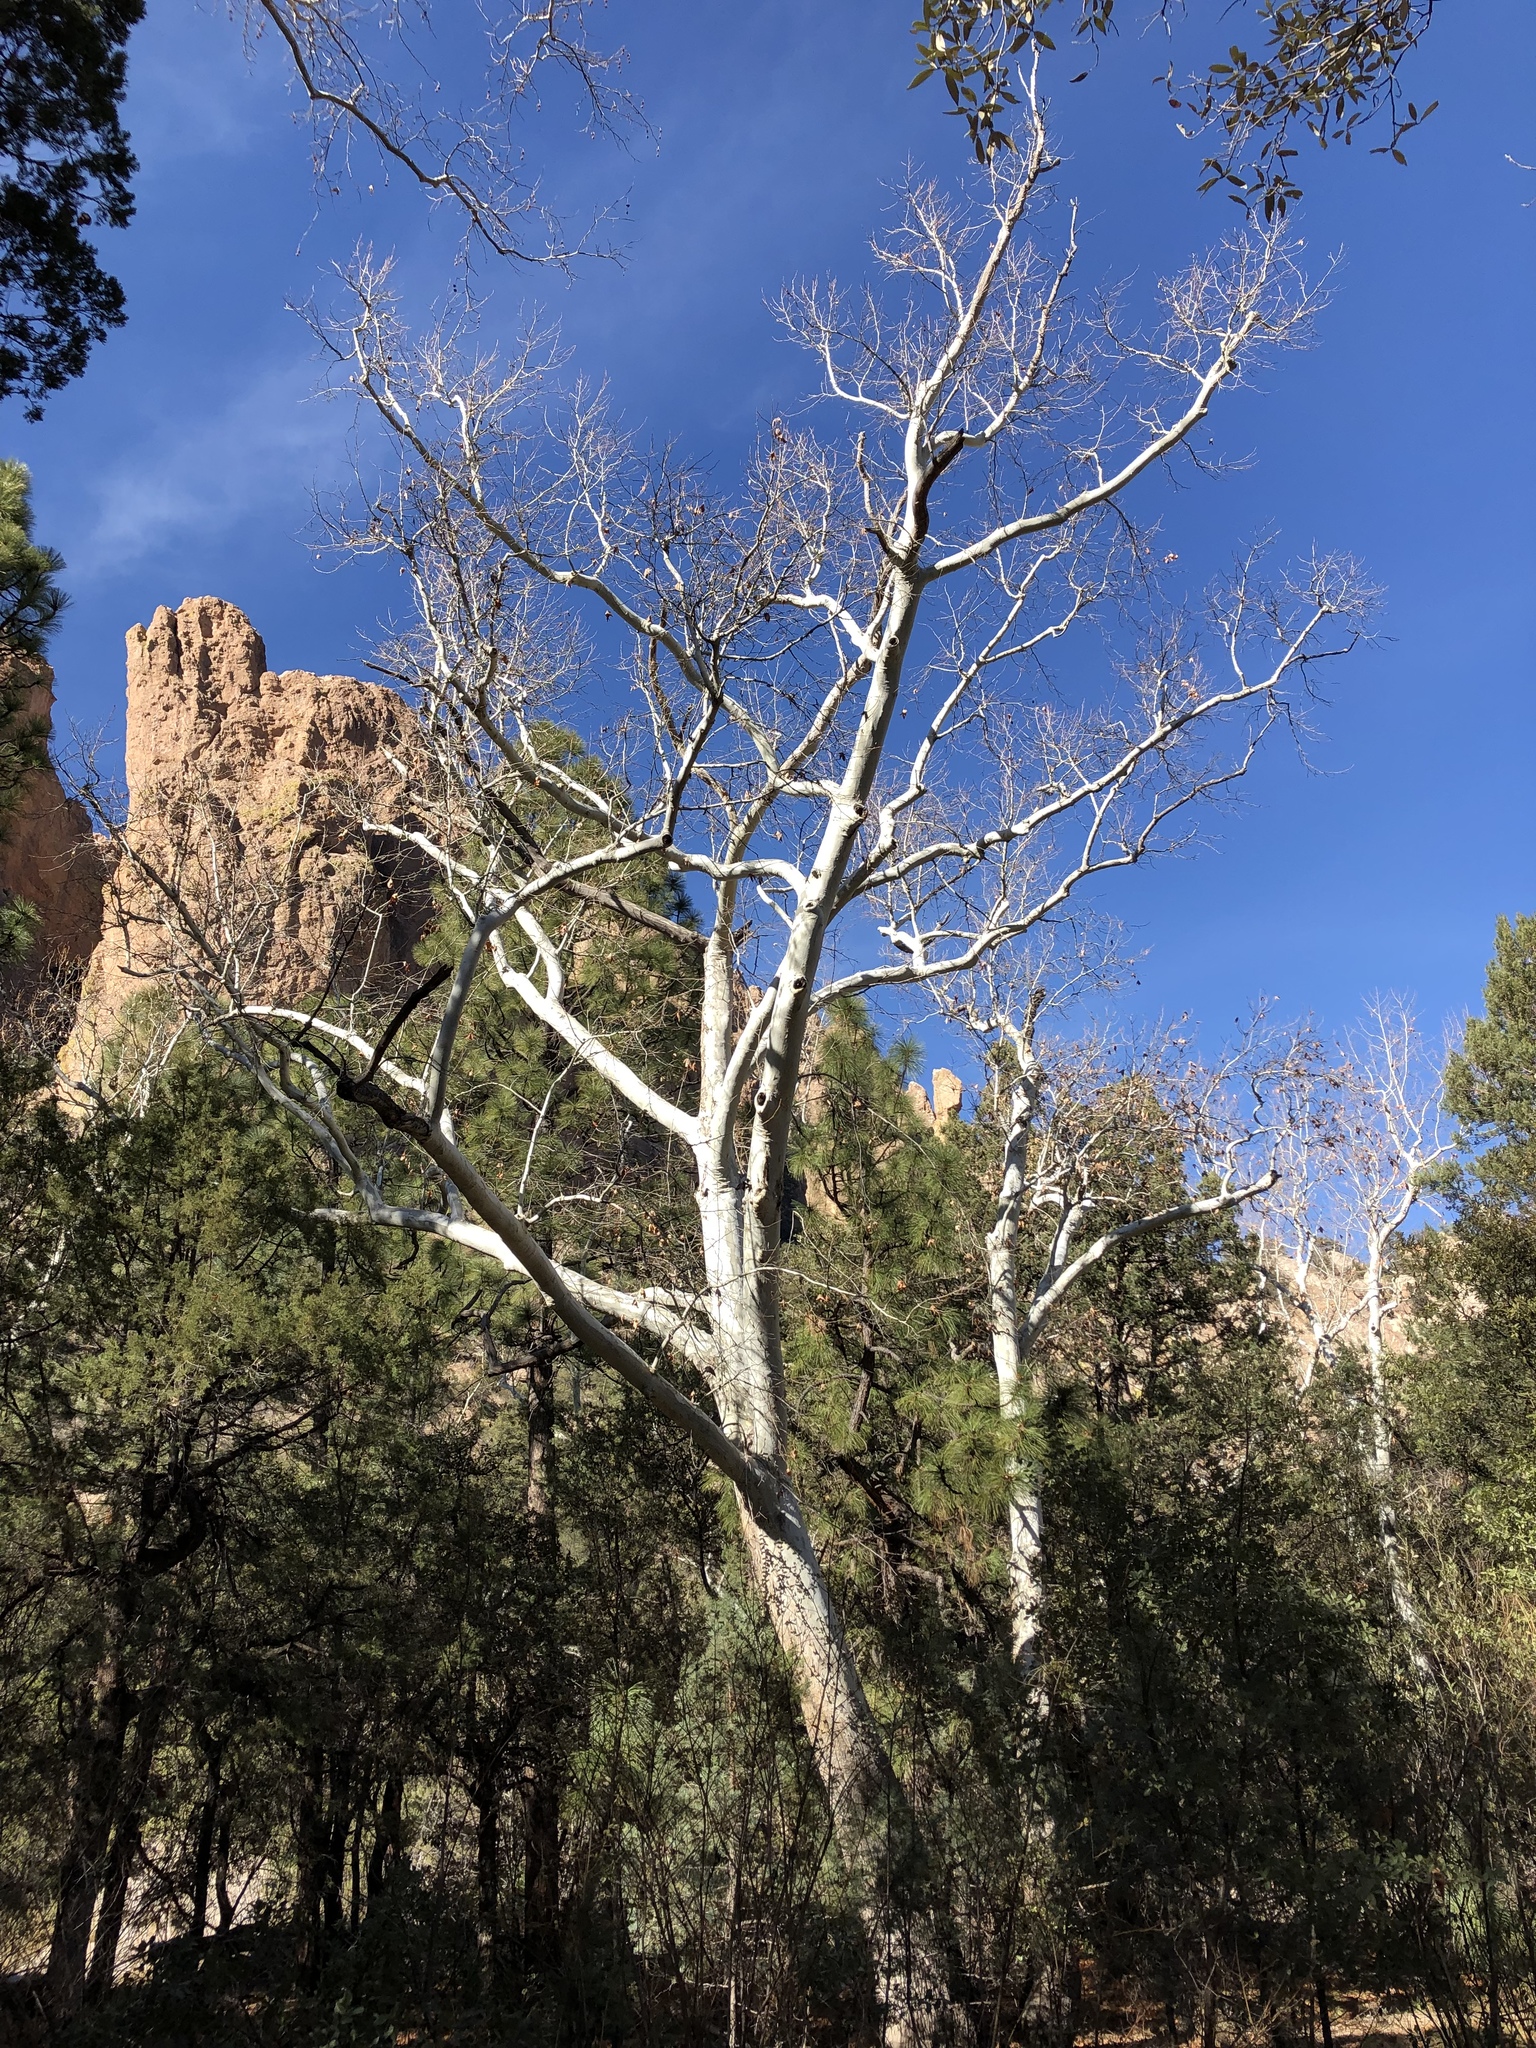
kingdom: Plantae
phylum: Tracheophyta
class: Magnoliopsida
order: Proteales
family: Platanaceae
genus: Platanus
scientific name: Platanus wrightii
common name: Arizona sycamore
